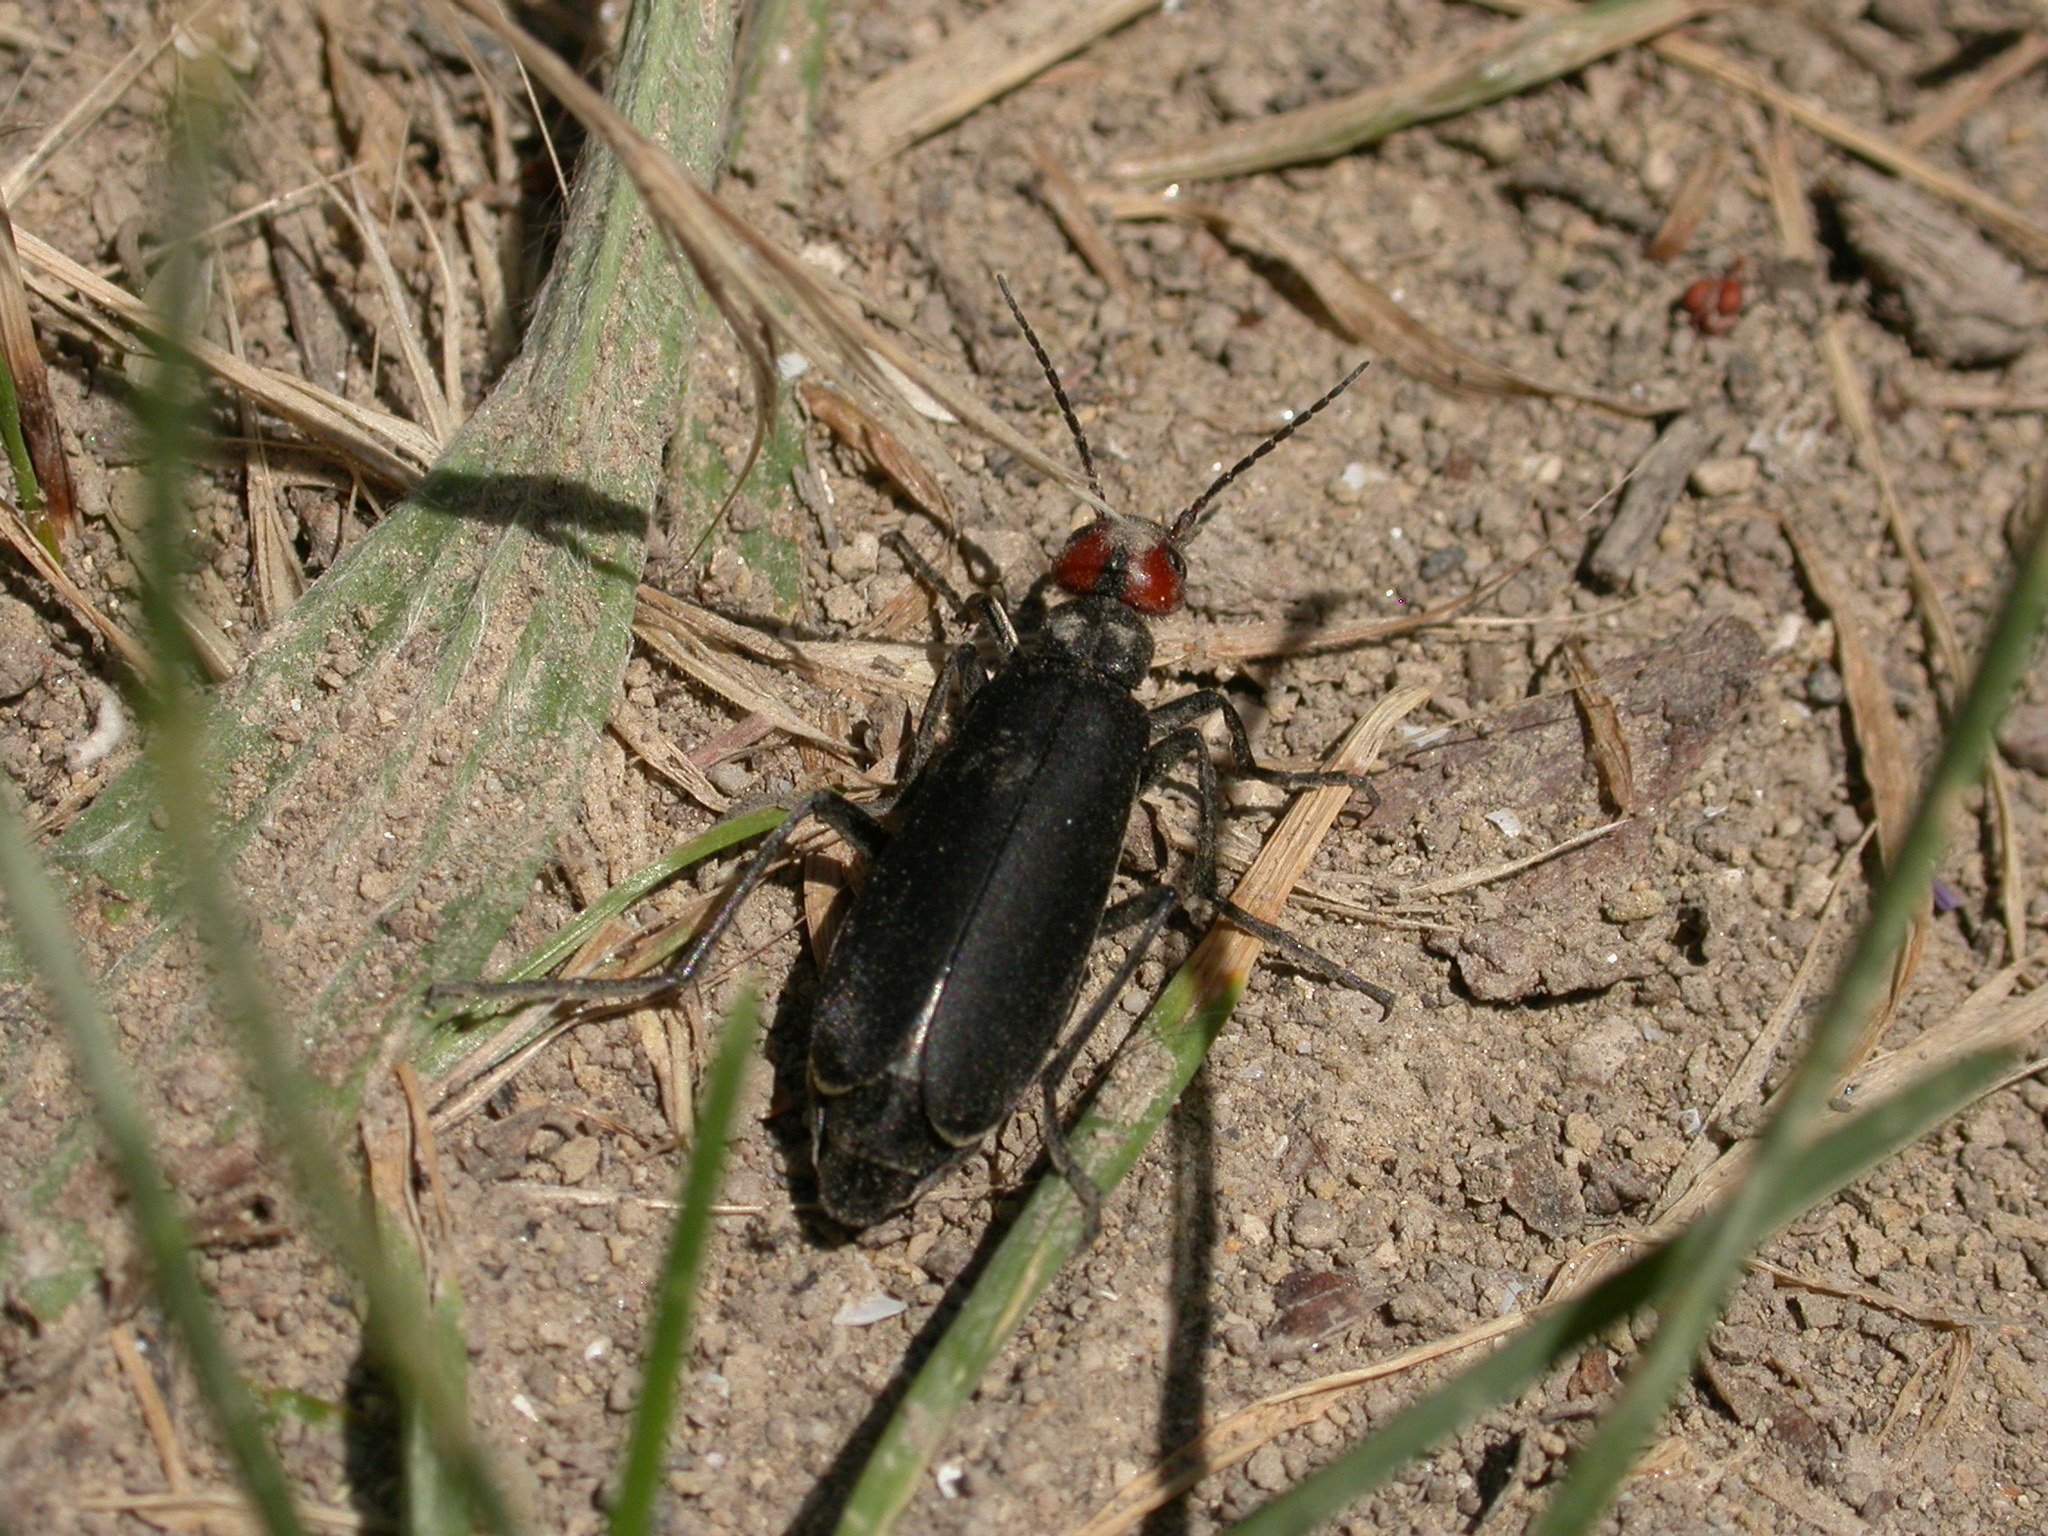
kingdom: Animalia
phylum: Arthropoda
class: Insecta
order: Coleoptera
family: Meloidae
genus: Epicauta
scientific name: Epicauta rufidorsum
